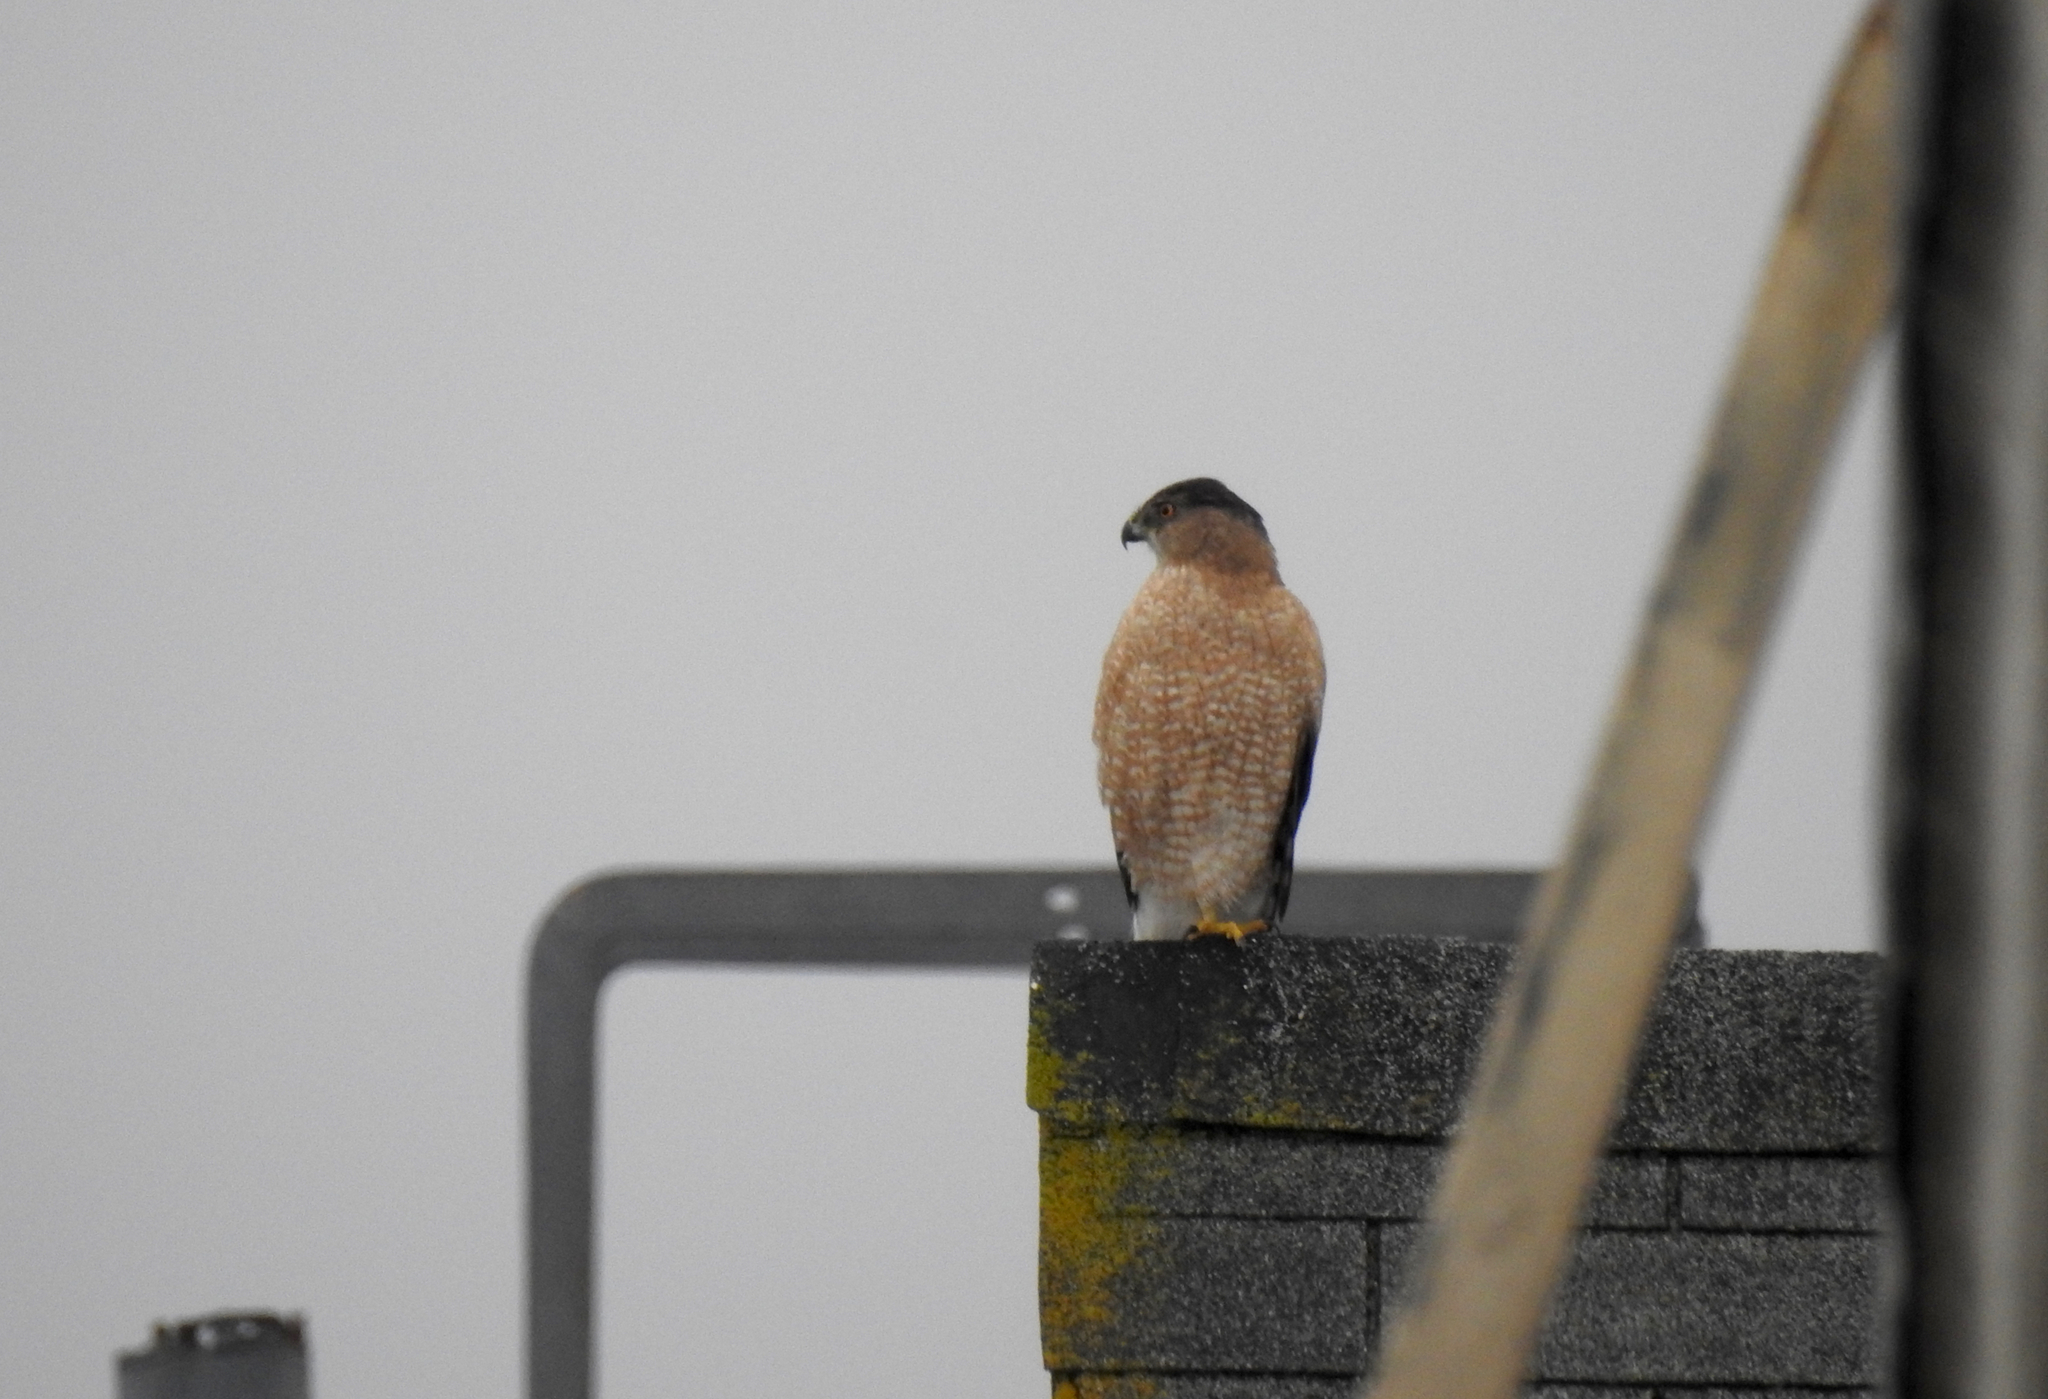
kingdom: Animalia
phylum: Chordata
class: Aves
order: Accipitriformes
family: Accipitridae
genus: Accipiter
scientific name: Accipiter cooperii
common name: Cooper's hawk
